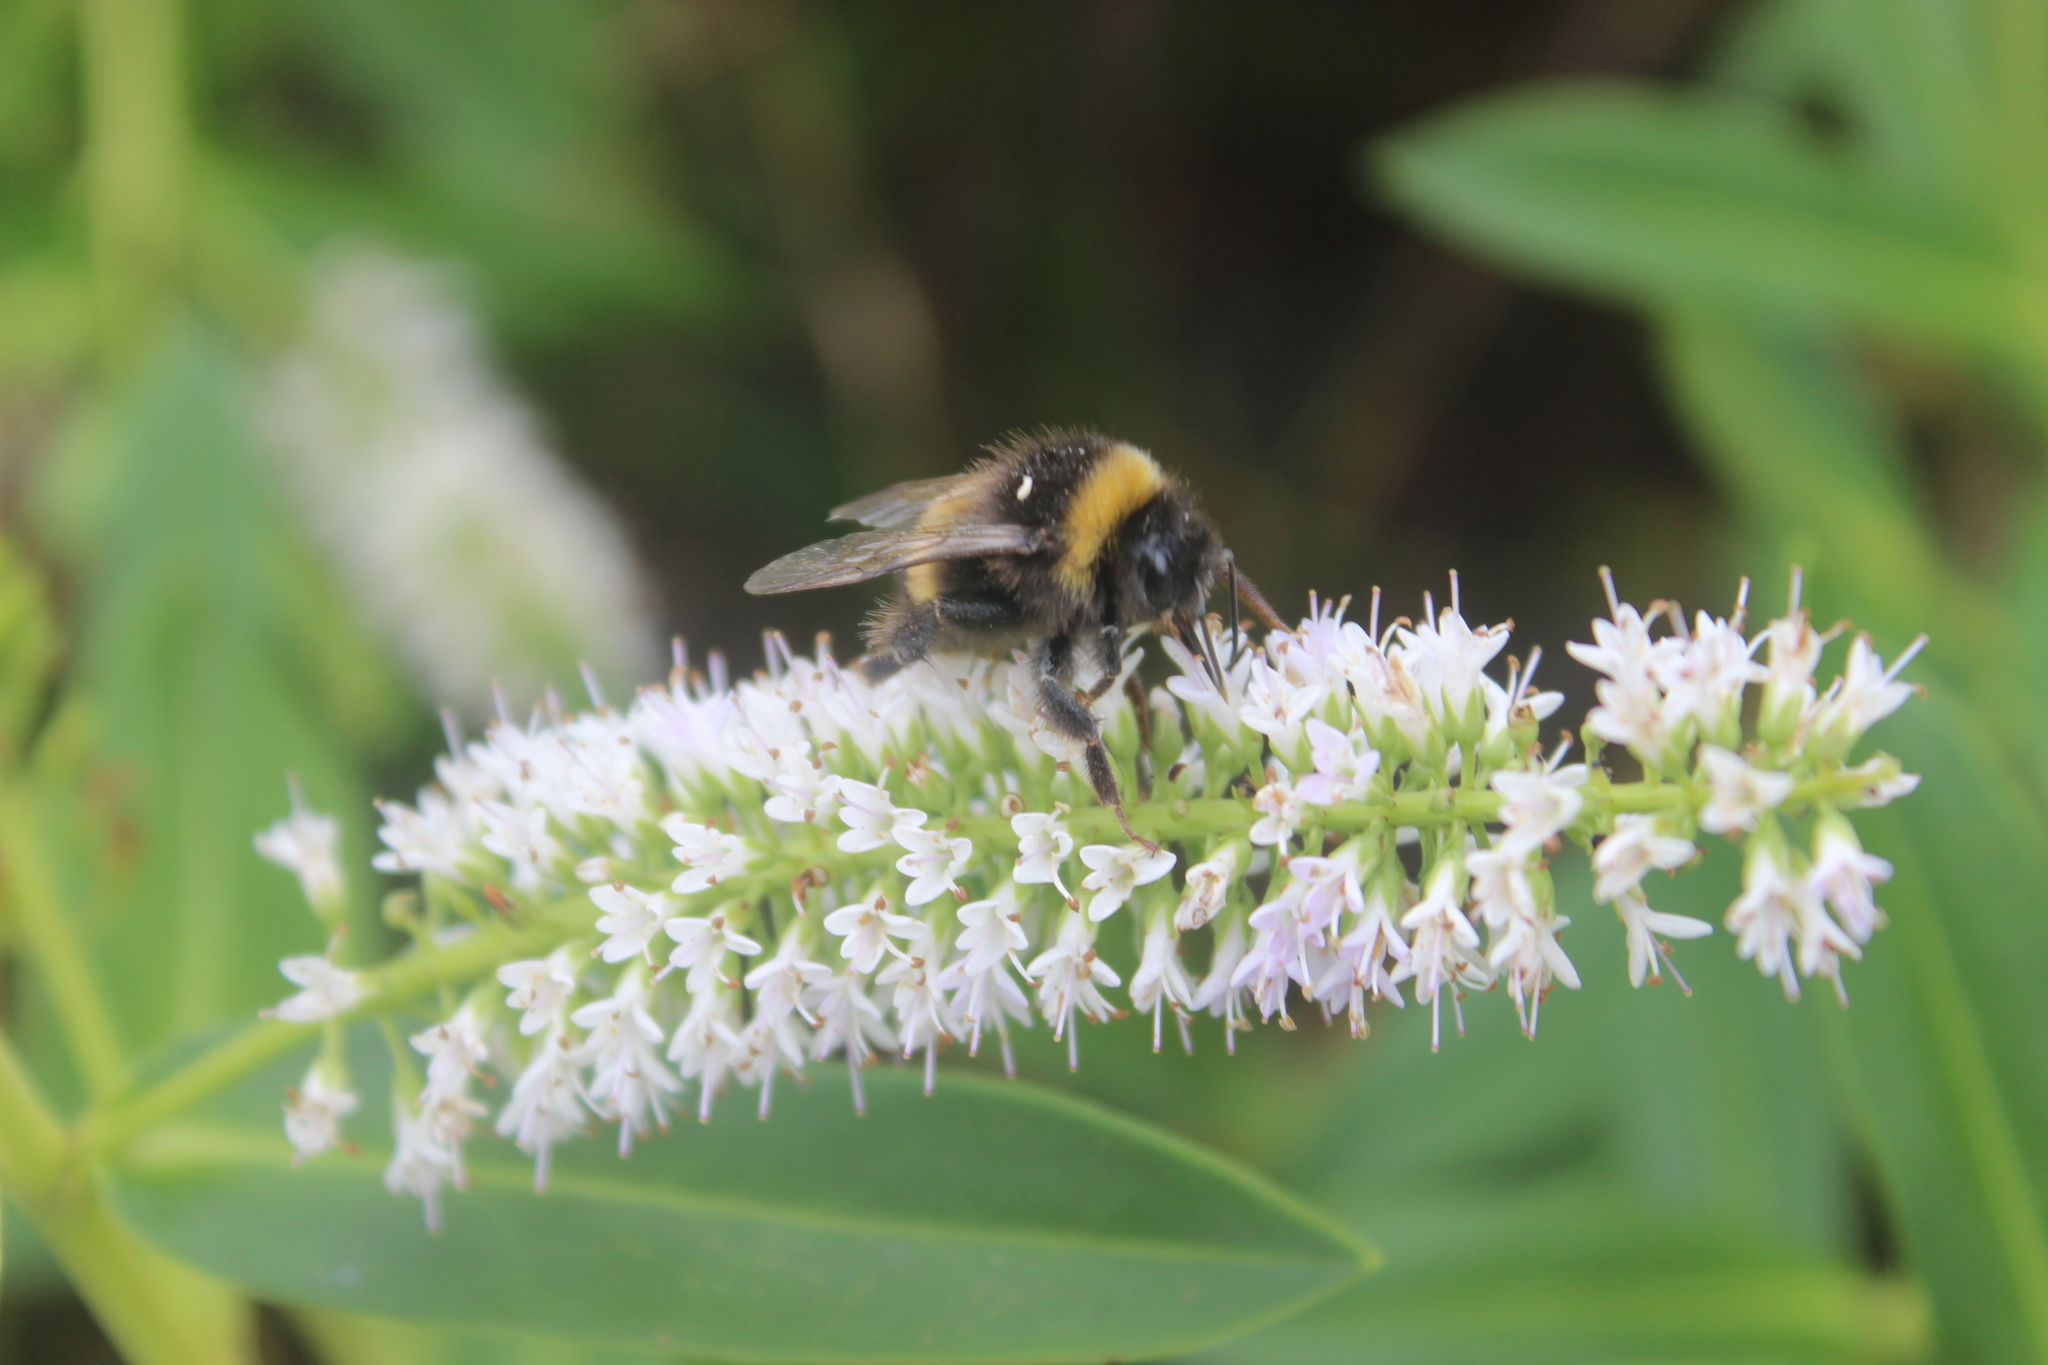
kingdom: Animalia
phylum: Arthropoda
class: Insecta
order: Hymenoptera
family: Apidae
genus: Bombus
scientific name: Bombus terrestris
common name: Buff-tailed bumblebee
